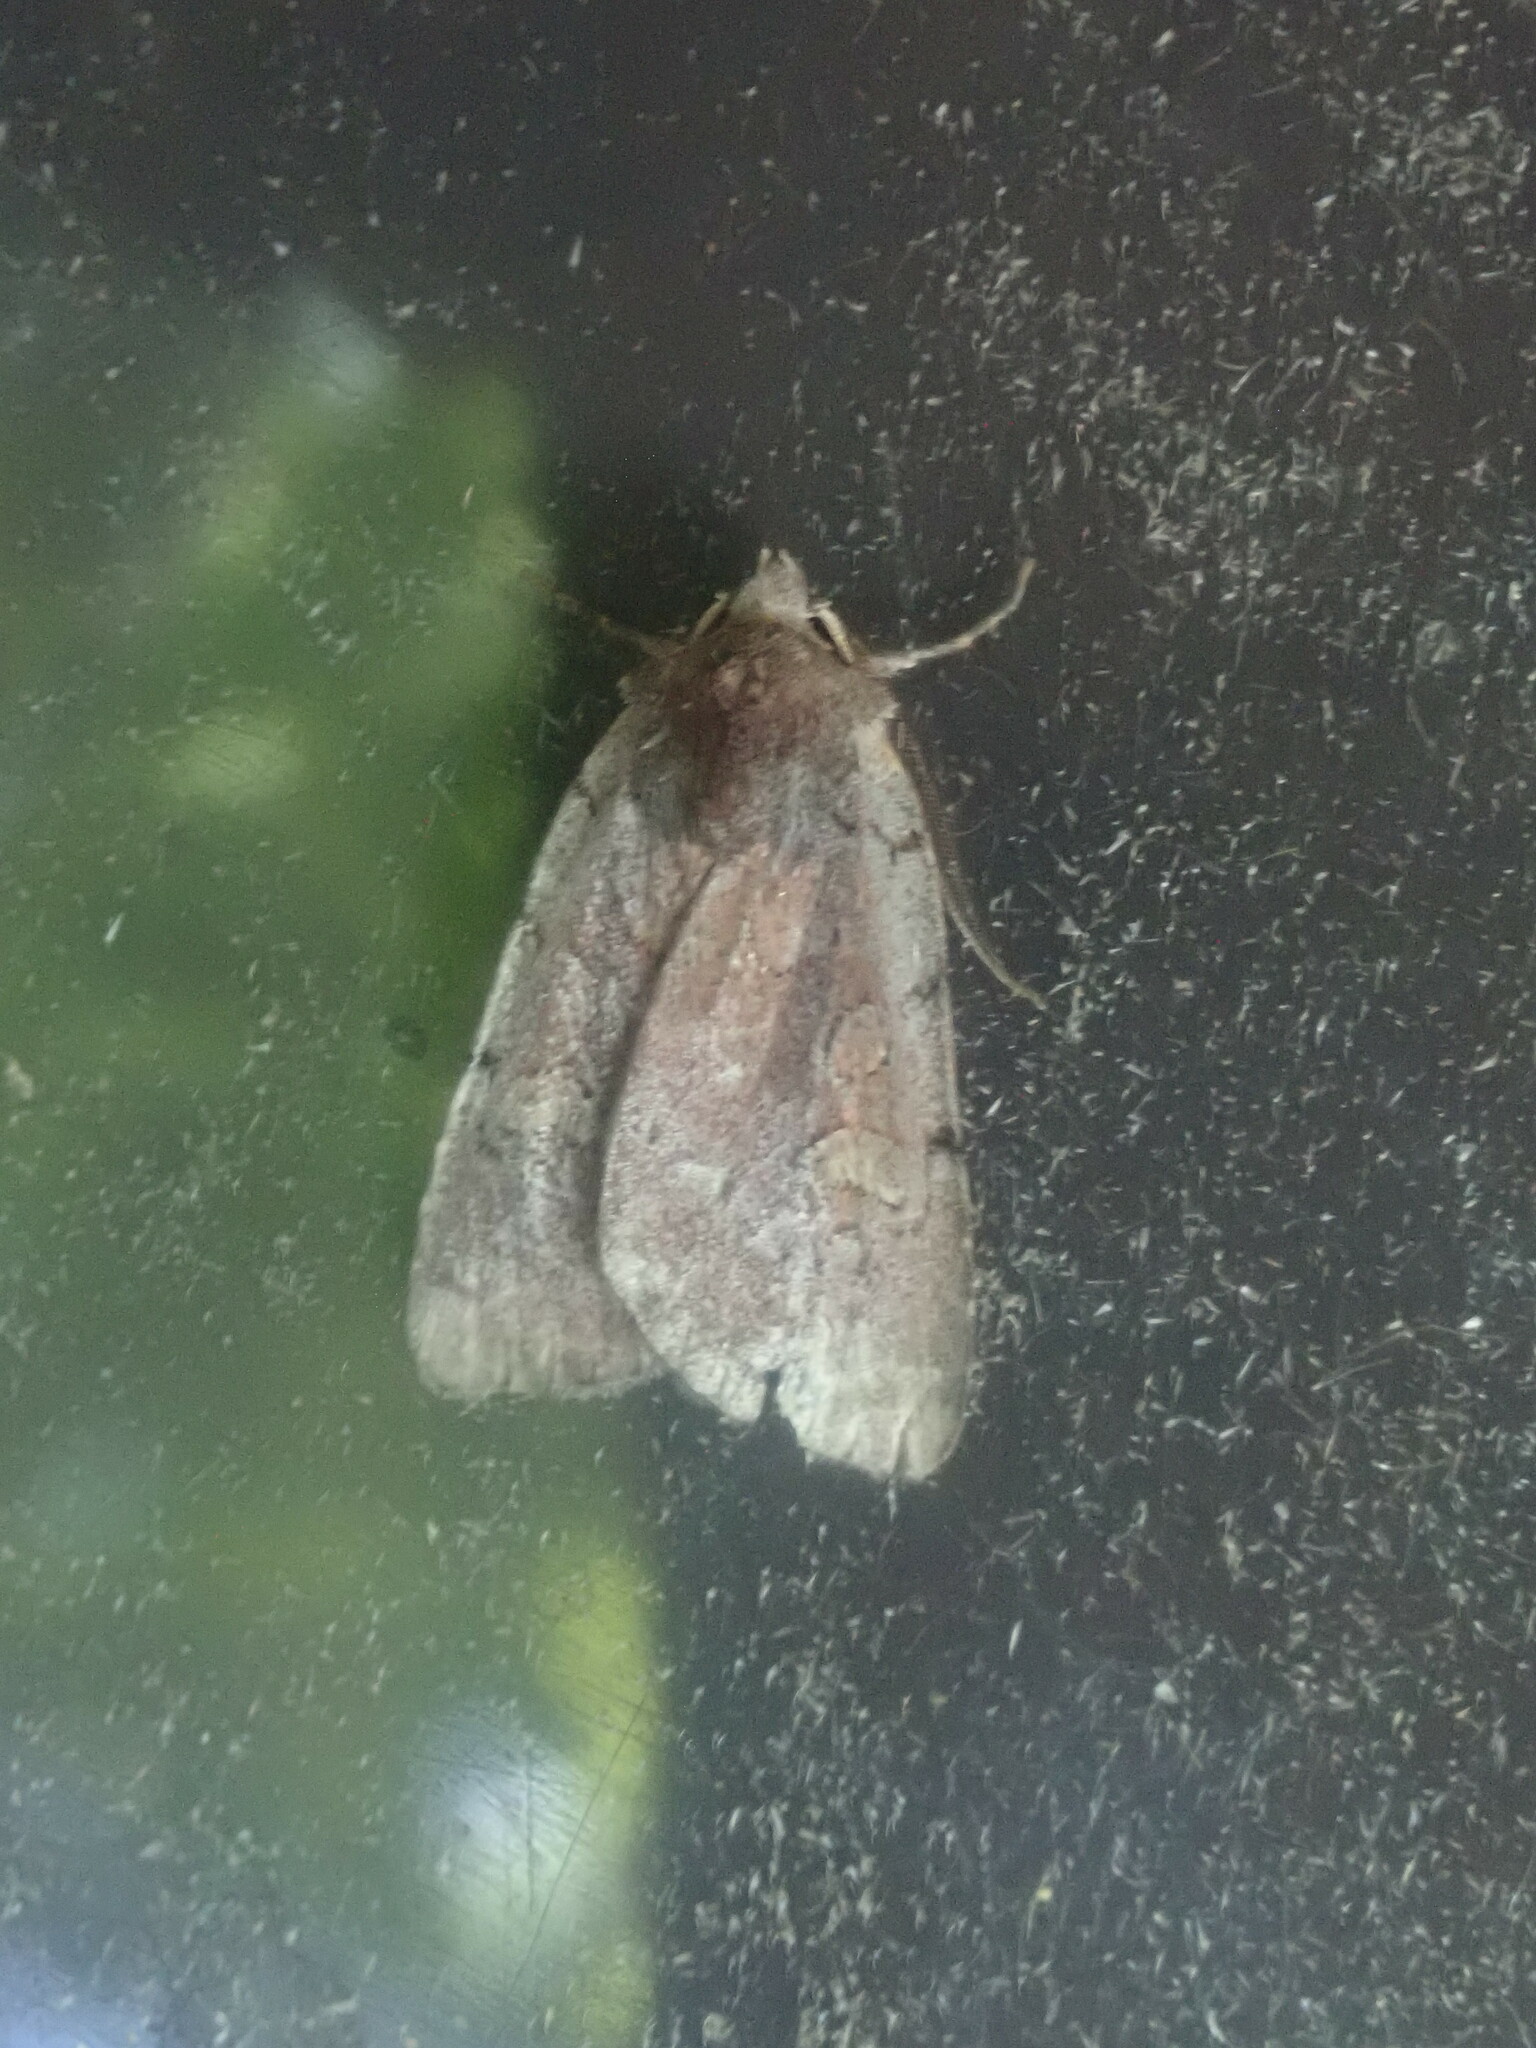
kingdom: Animalia
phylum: Arthropoda
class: Insecta
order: Lepidoptera
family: Noctuidae
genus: Xestia
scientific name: Xestia dilucida
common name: Dull reddish dart
